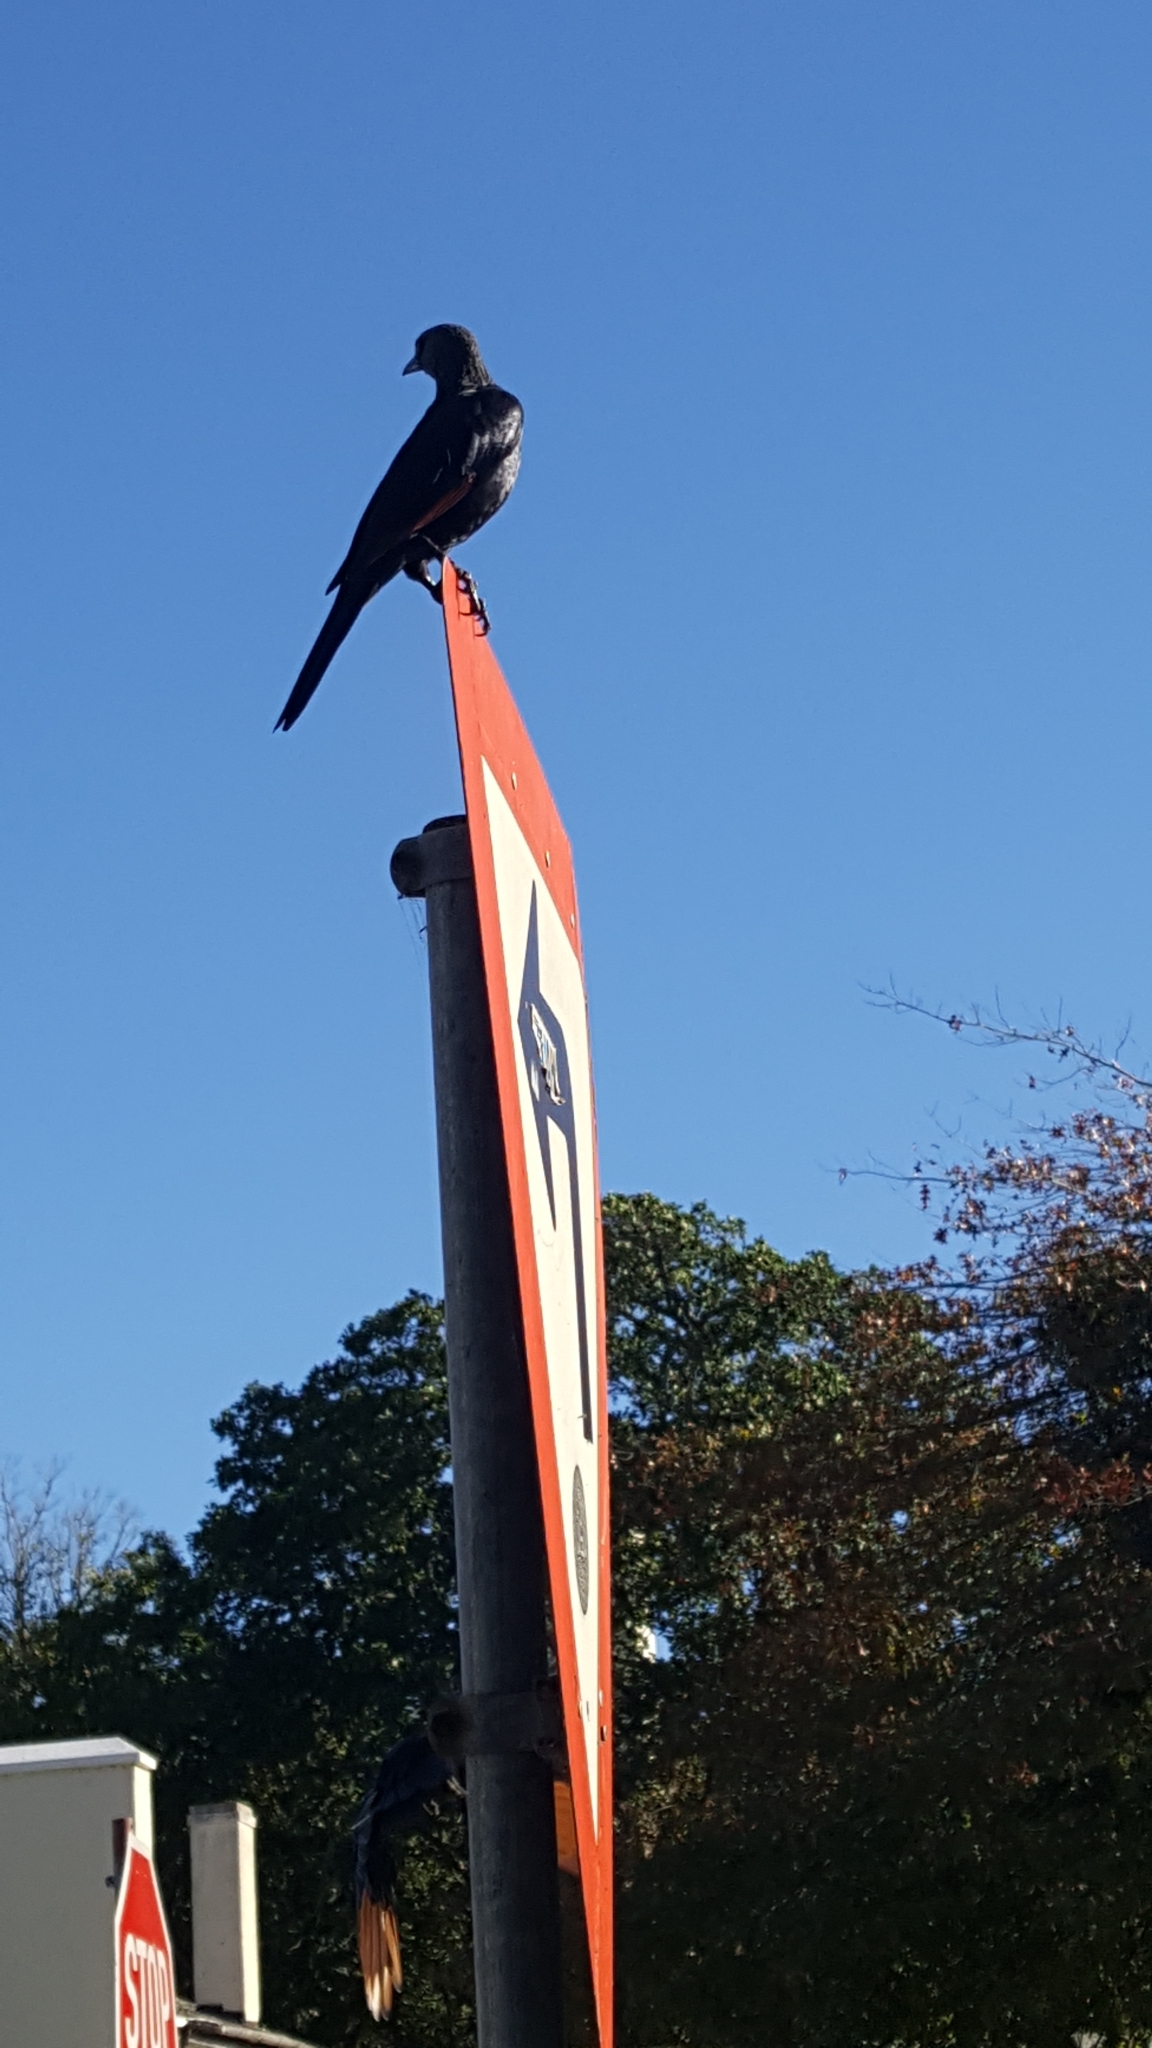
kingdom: Animalia
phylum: Chordata
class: Aves
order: Passeriformes
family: Sturnidae
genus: Onychognathus
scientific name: Onychognathus morio
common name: Red-winged starling
